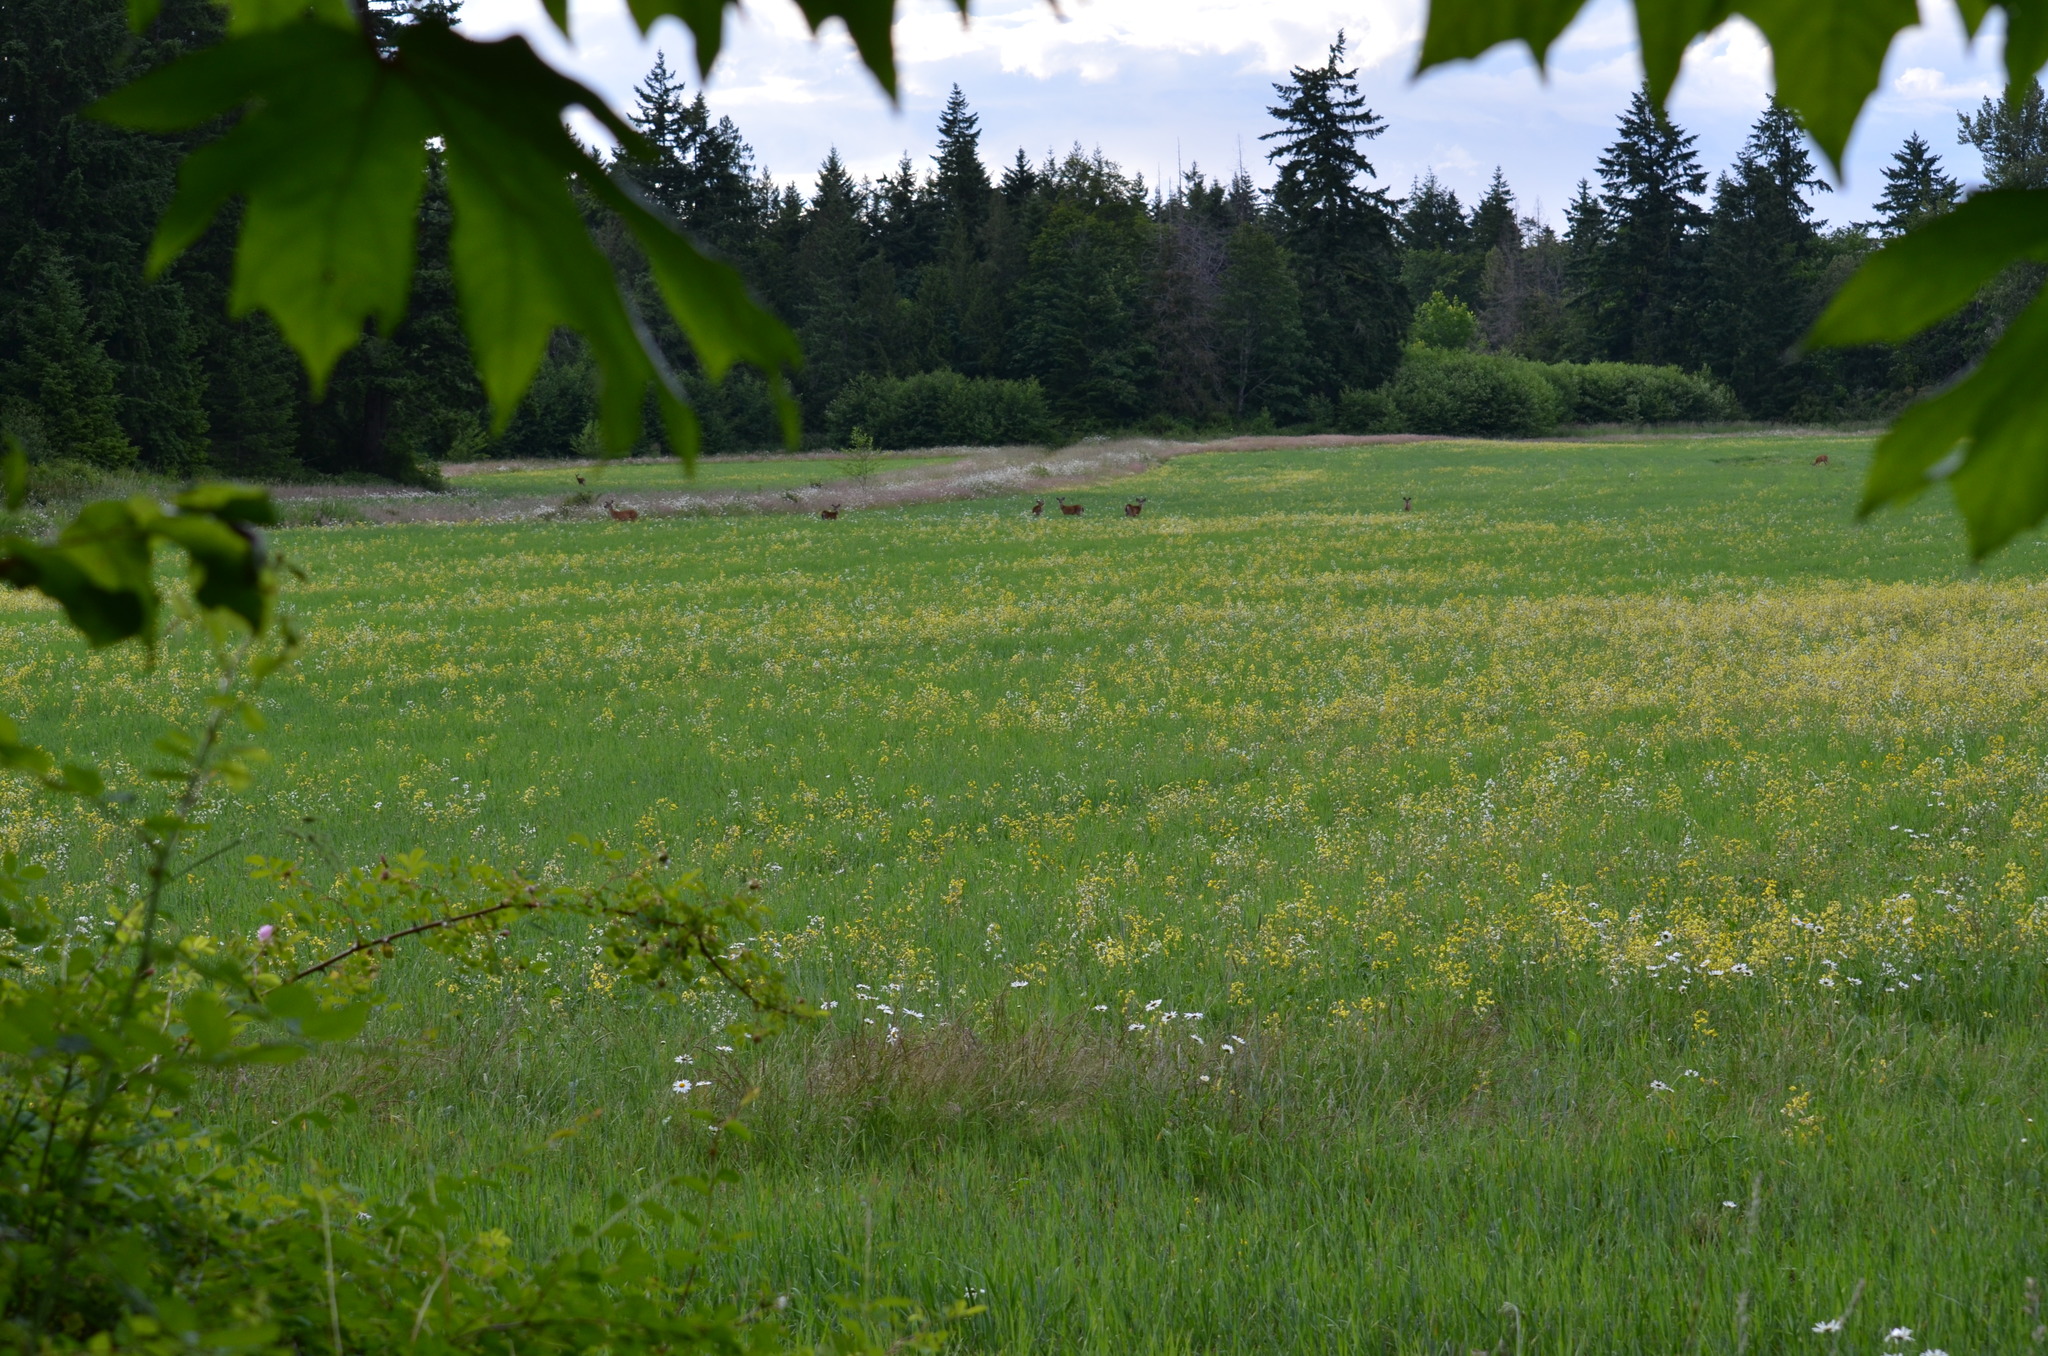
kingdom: Animalia
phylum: Chordata
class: Mammalia
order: Artiodactyla
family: Cervidae
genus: Odocoileus
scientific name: Odocoileus hemionus
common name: Mule deer
